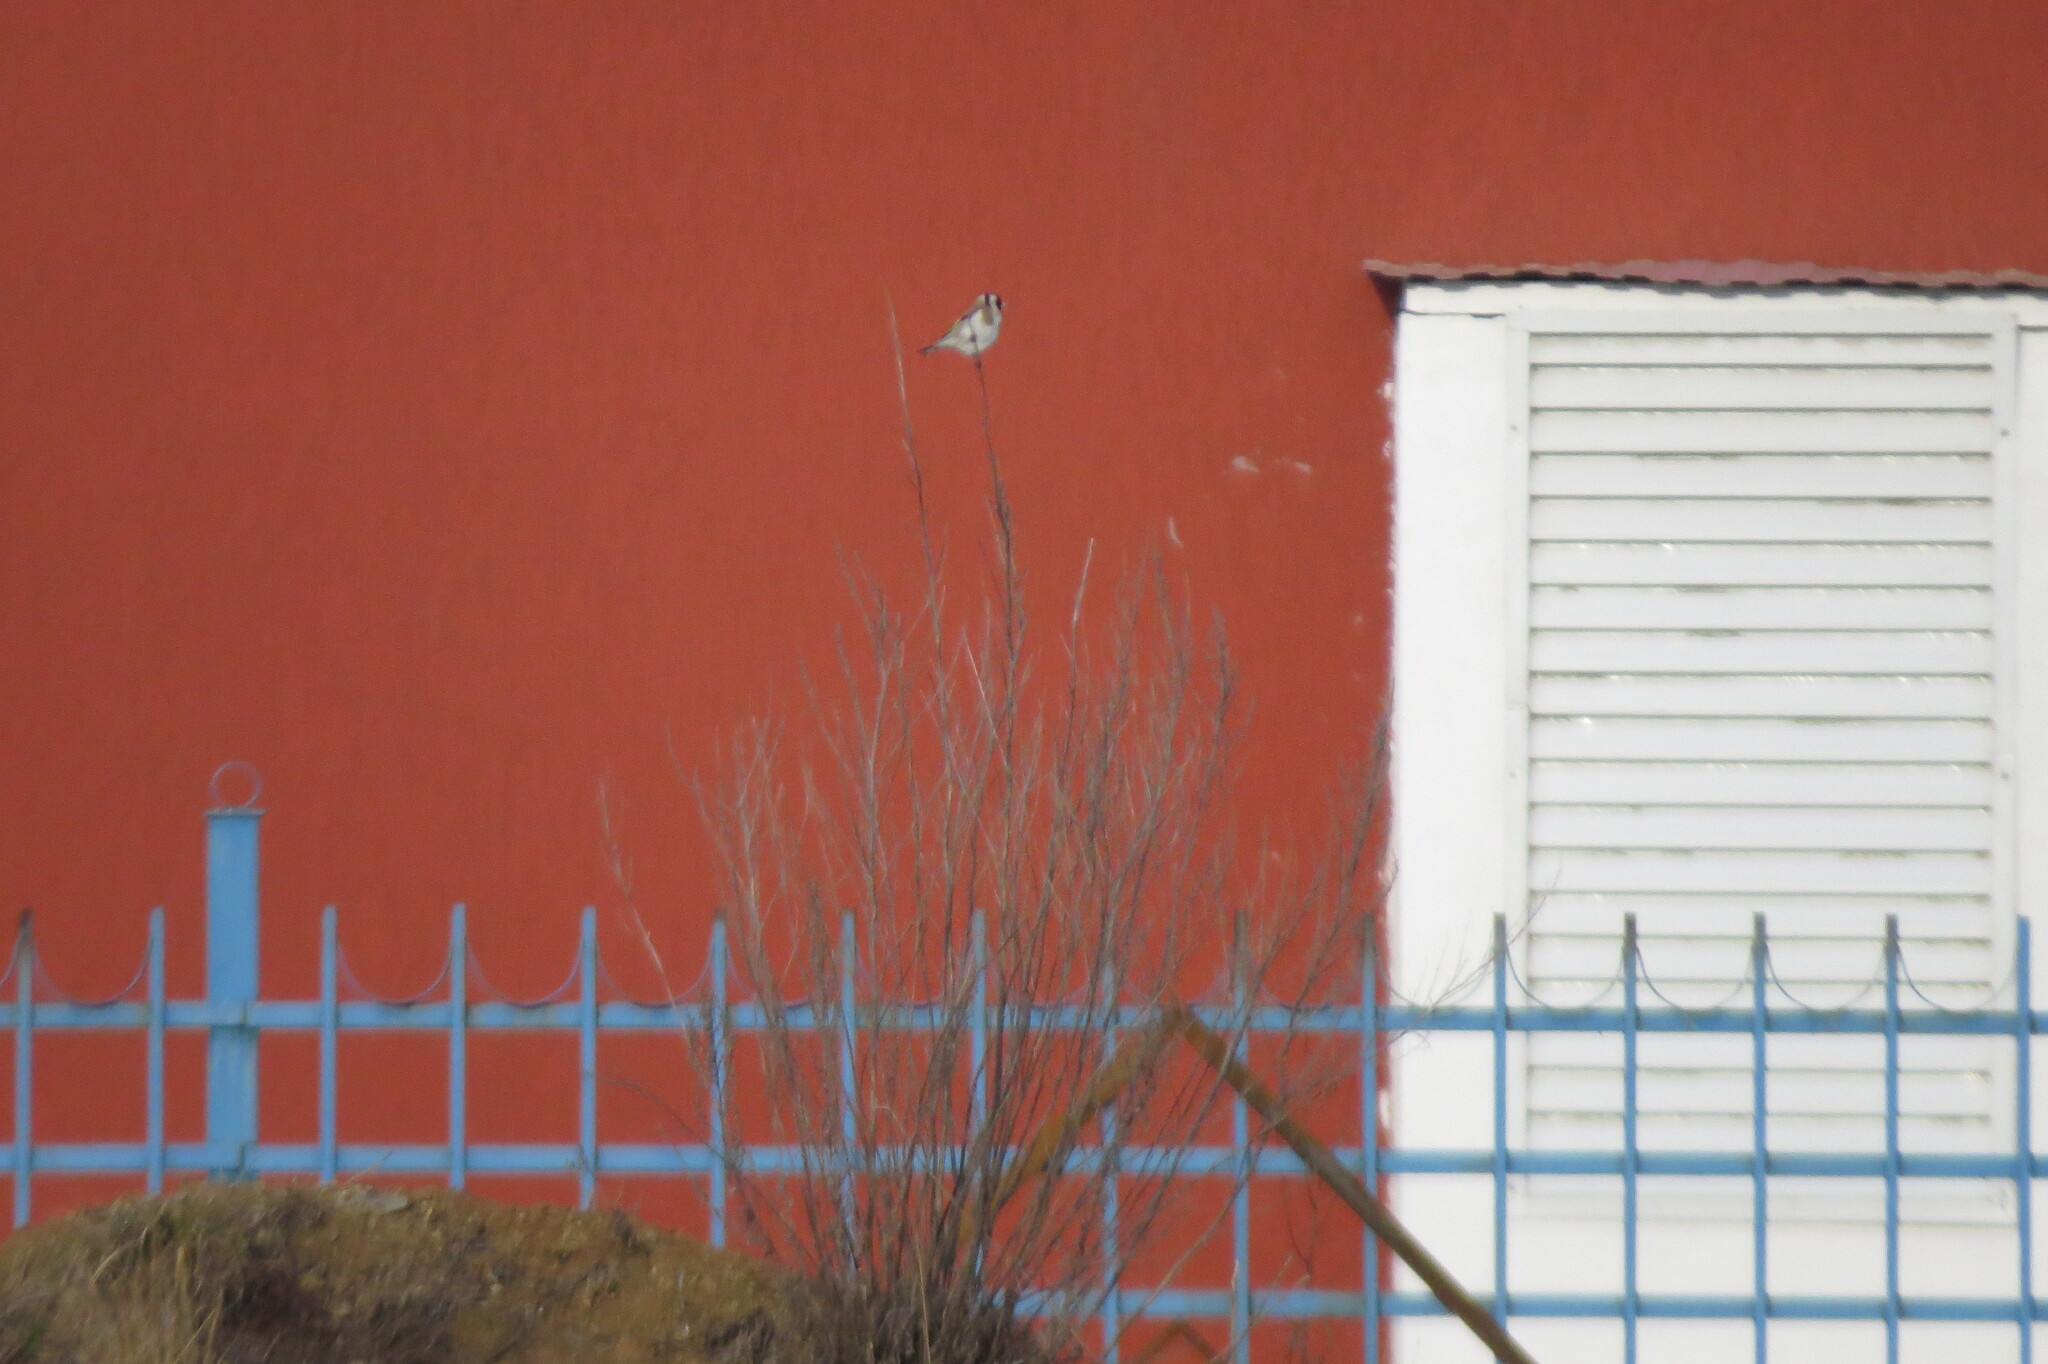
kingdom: Animalia
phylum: Chordata
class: Aves
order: Passeriformes
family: Fringillidae
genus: Carduelis
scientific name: Carduelis carduelis
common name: European goldfinch
